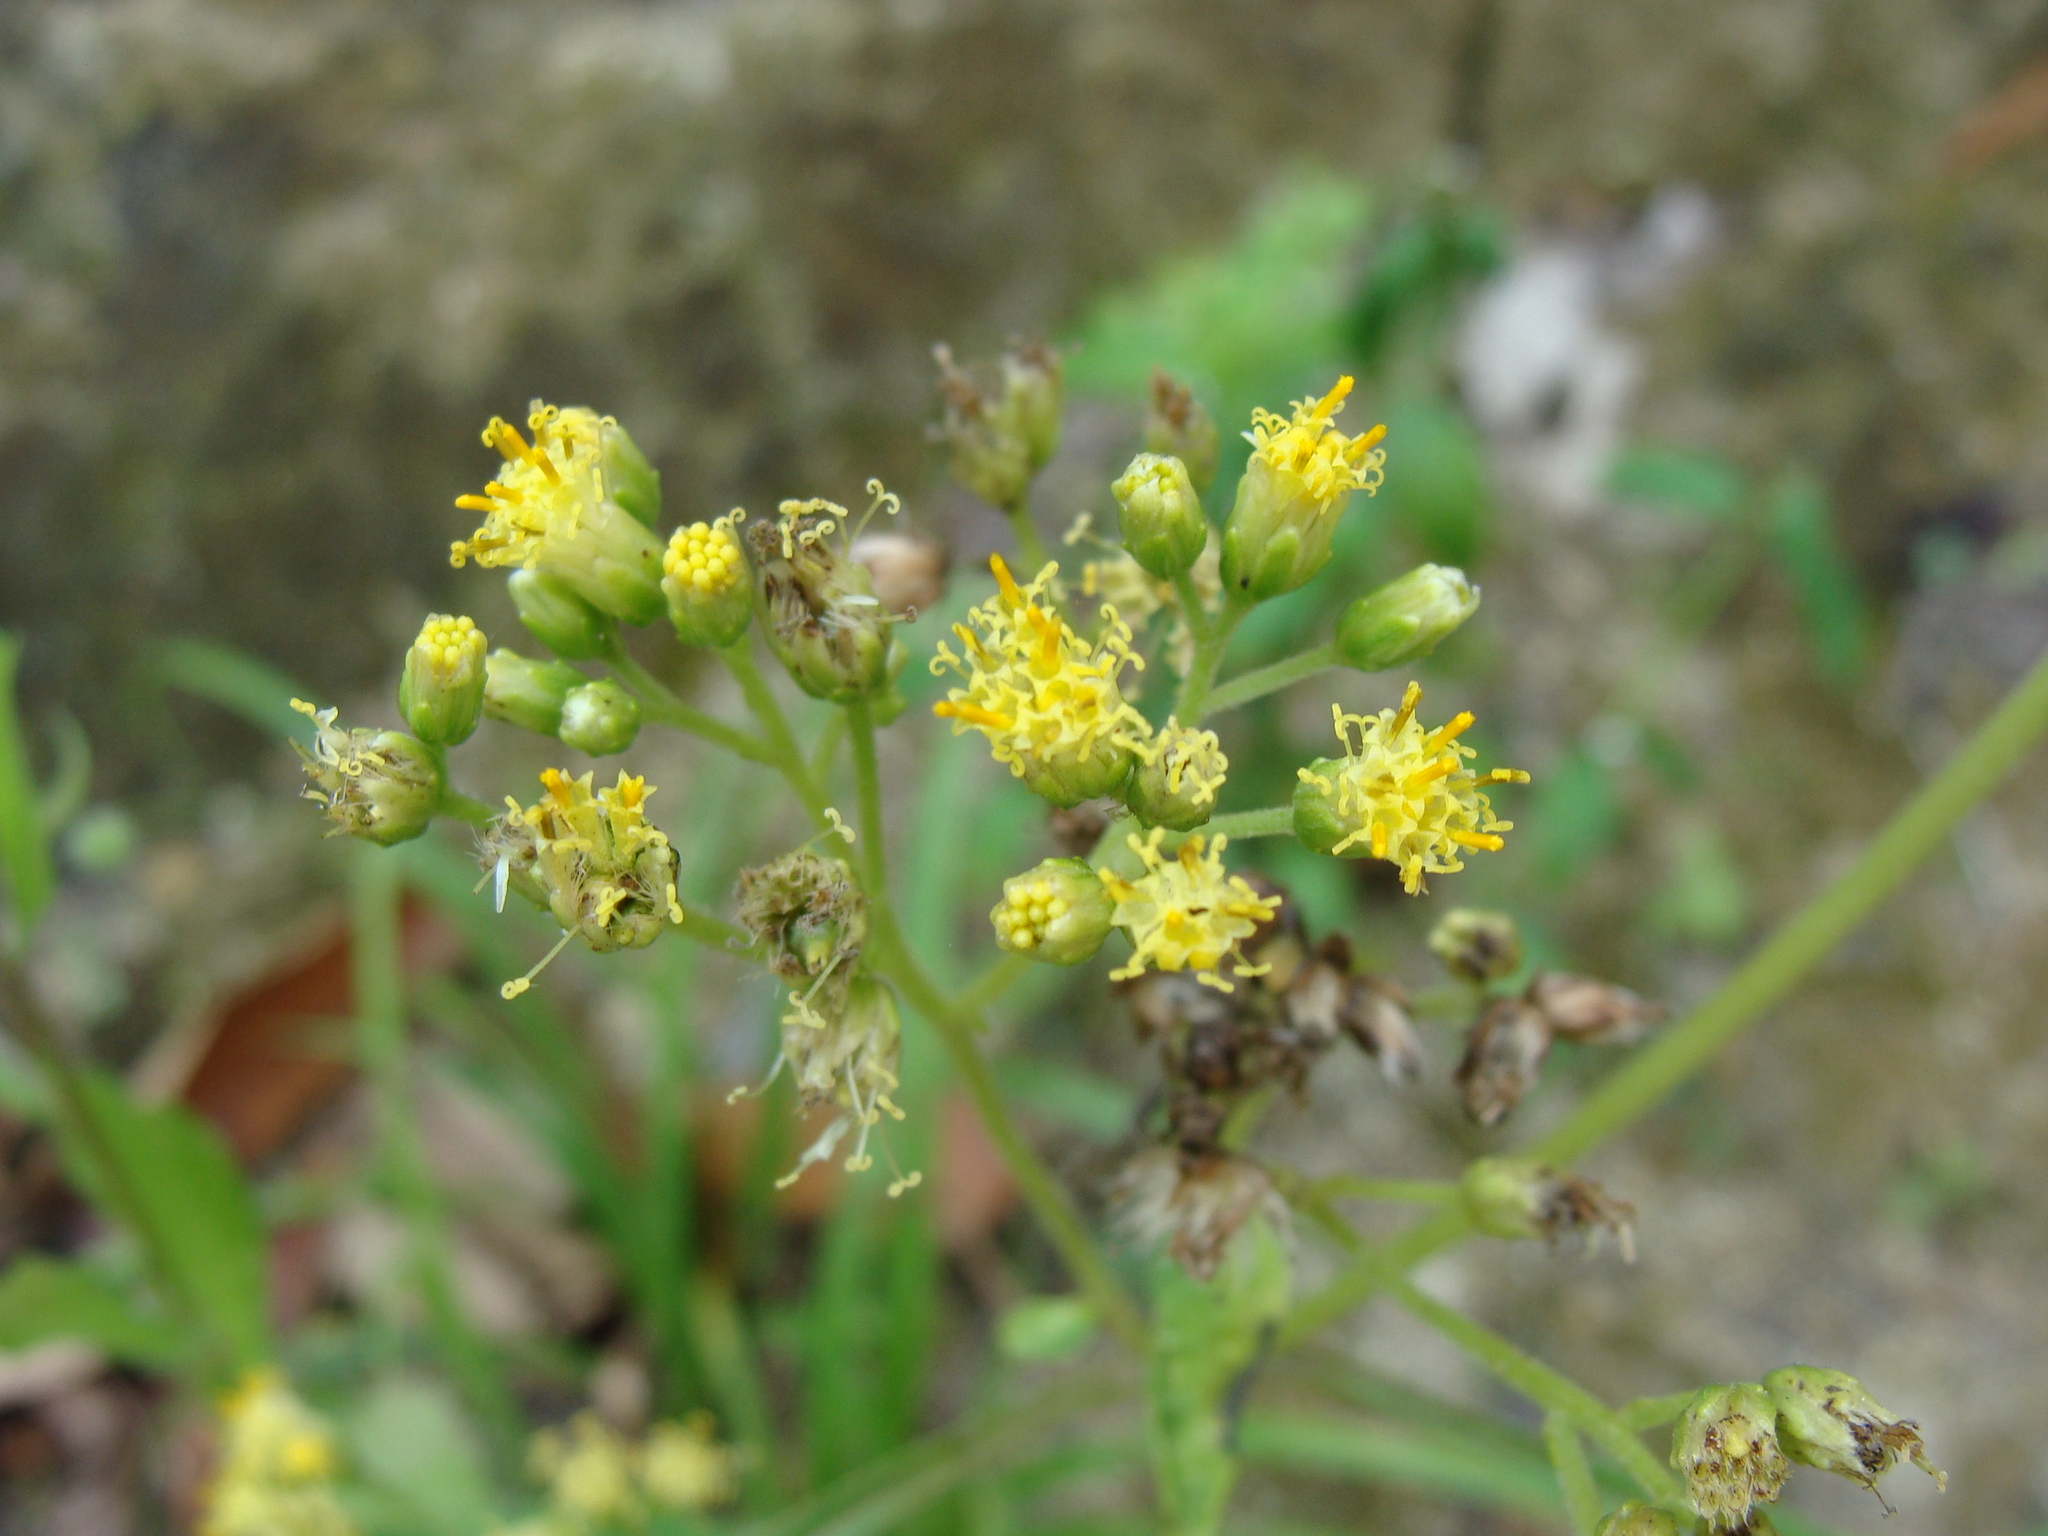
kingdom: Plantae
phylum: Tracheophyta
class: Magnoliopsida
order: Asterales
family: Asteraceae
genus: Schistocarpha
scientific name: Schistocarpha eupatorioides
